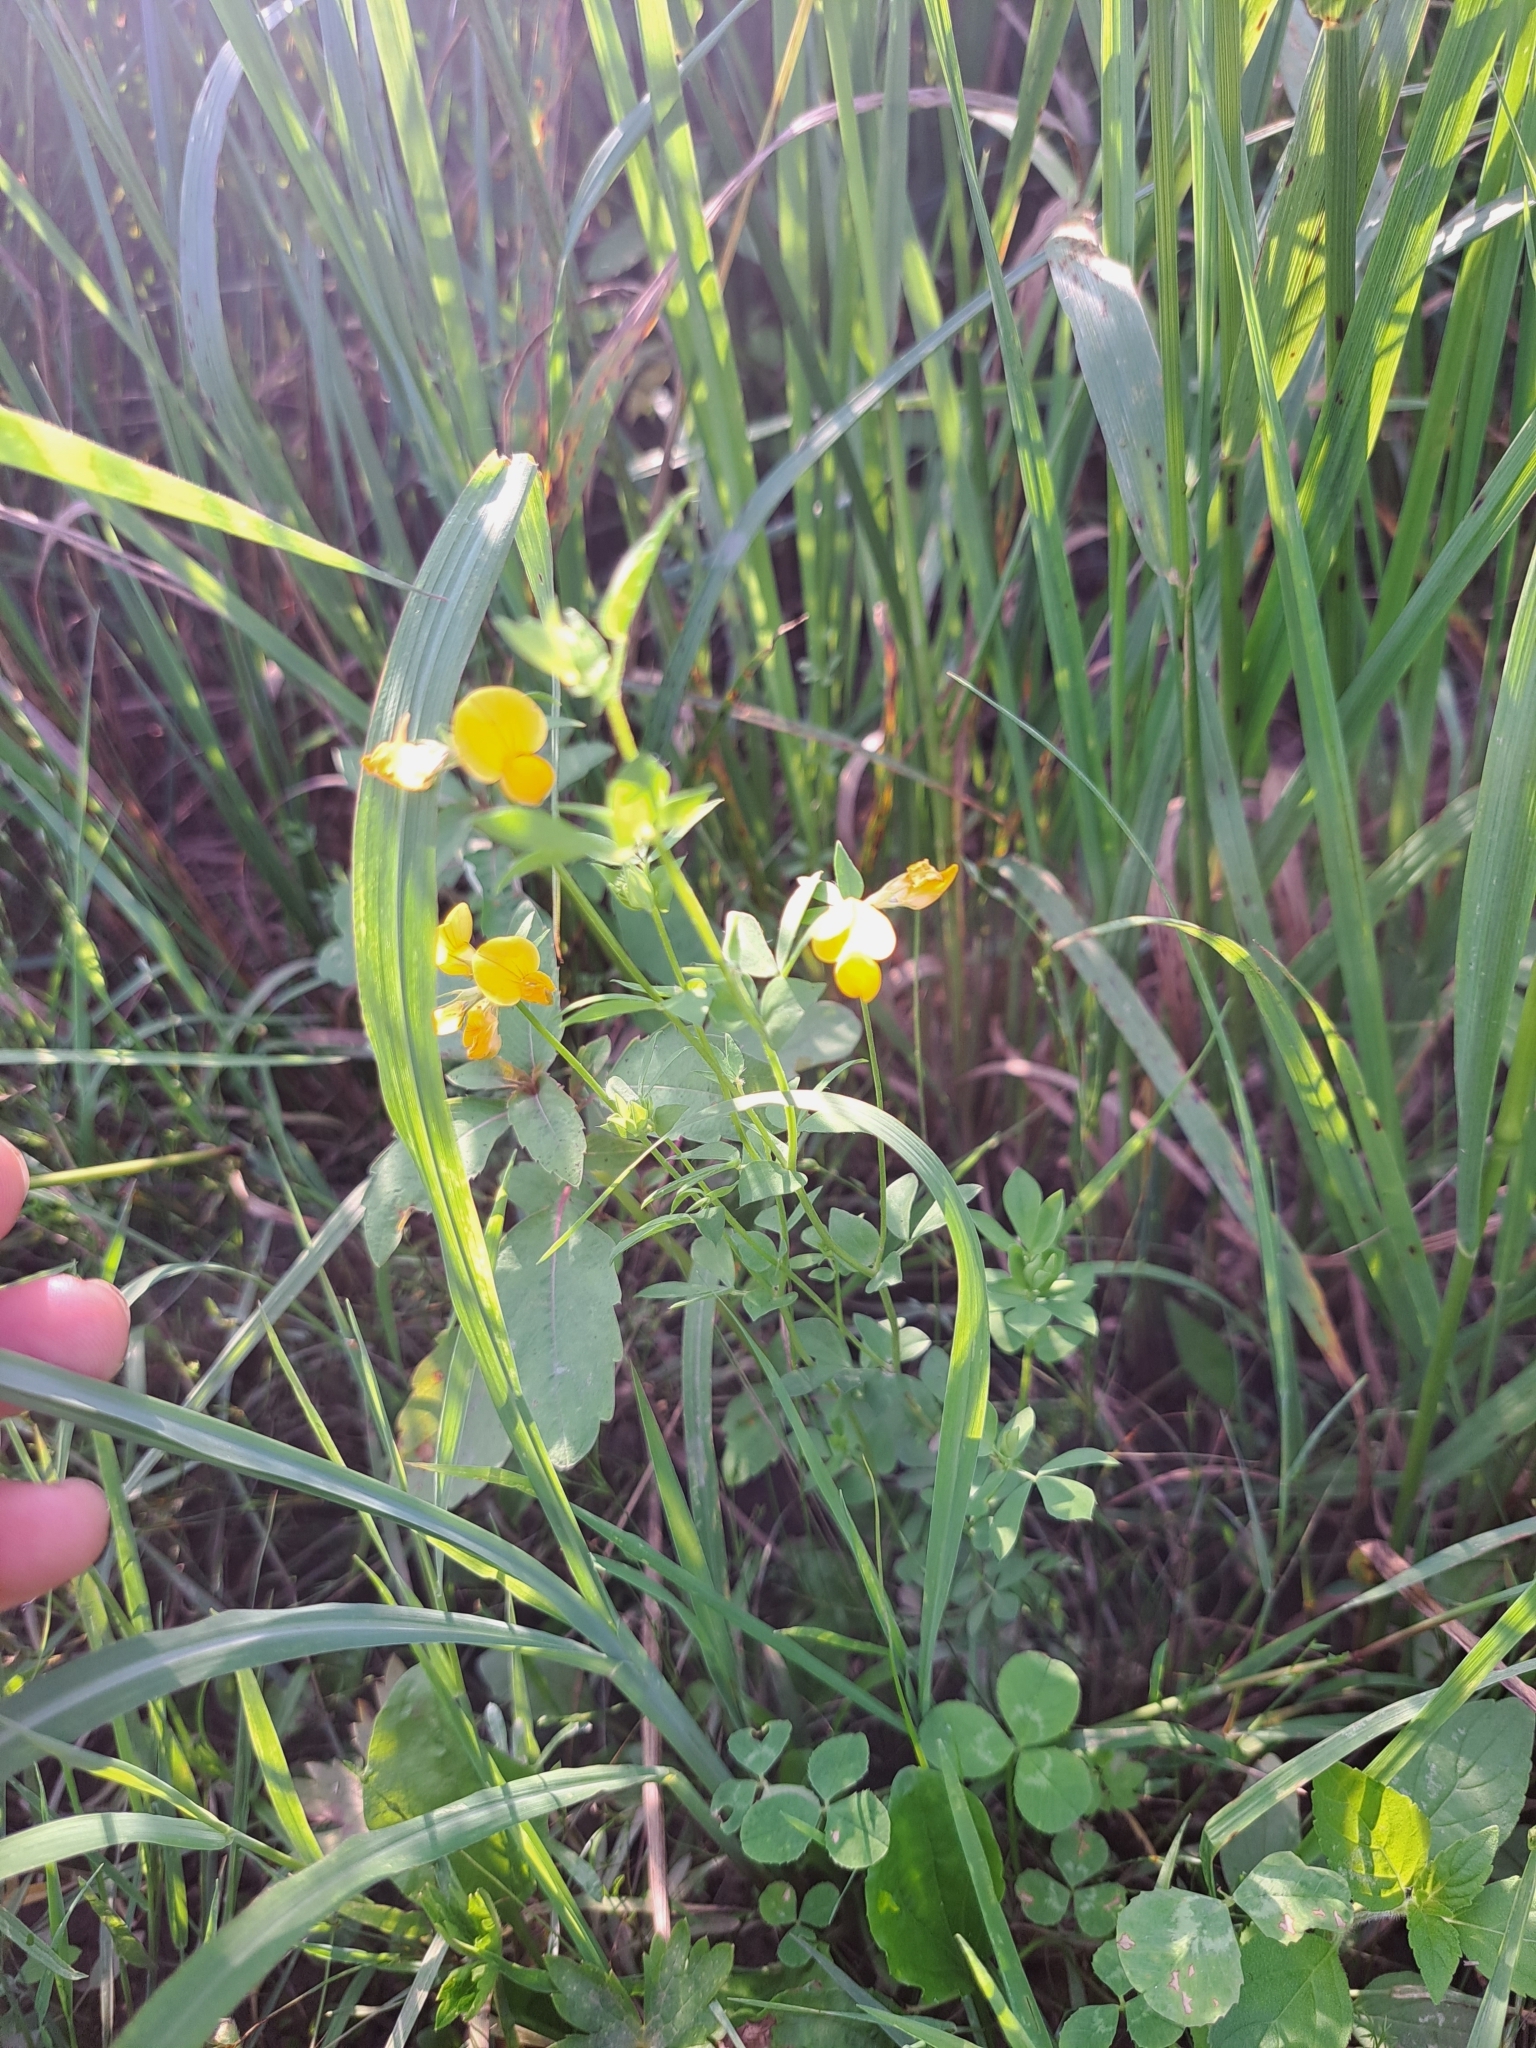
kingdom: Plantae
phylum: Tracheophyta
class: Magnoliopsida
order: Fabales
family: Fabaceae
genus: Lotus
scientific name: Lotus corniculatus
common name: Common bird's-foot-trefoil
